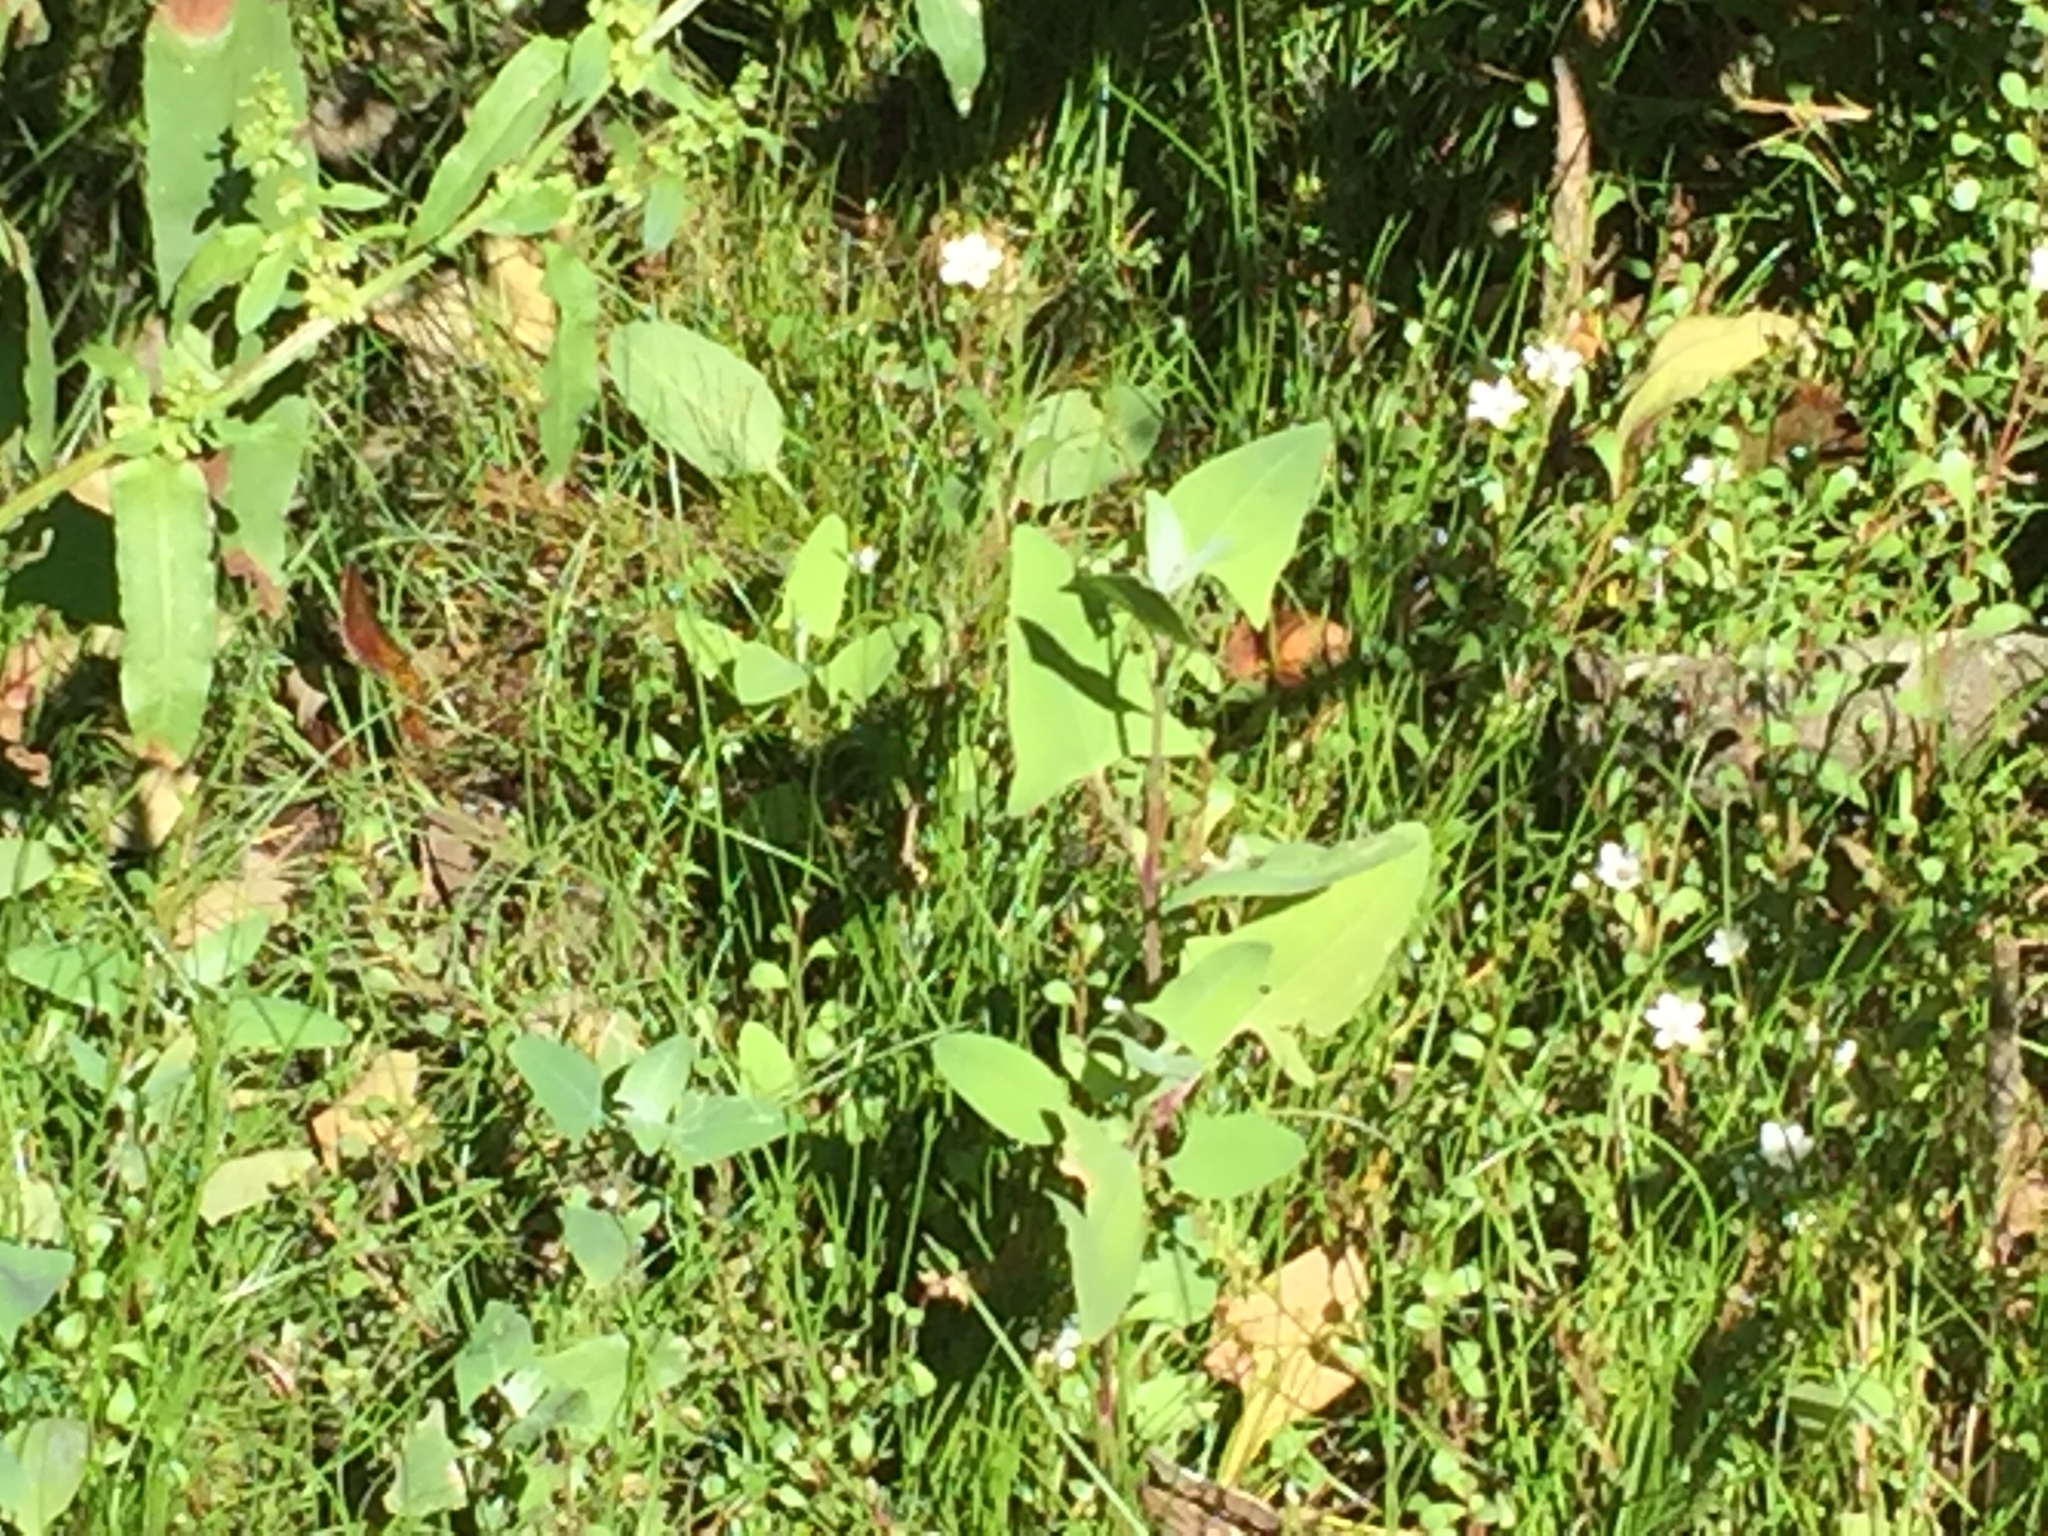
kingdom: Plantae
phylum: Tracheophyta
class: Magnoliopsida
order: Caryophyllales
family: Amaranthaceae
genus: Atriplex
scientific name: Atriplex prostrata
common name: Spear-leaved orache
